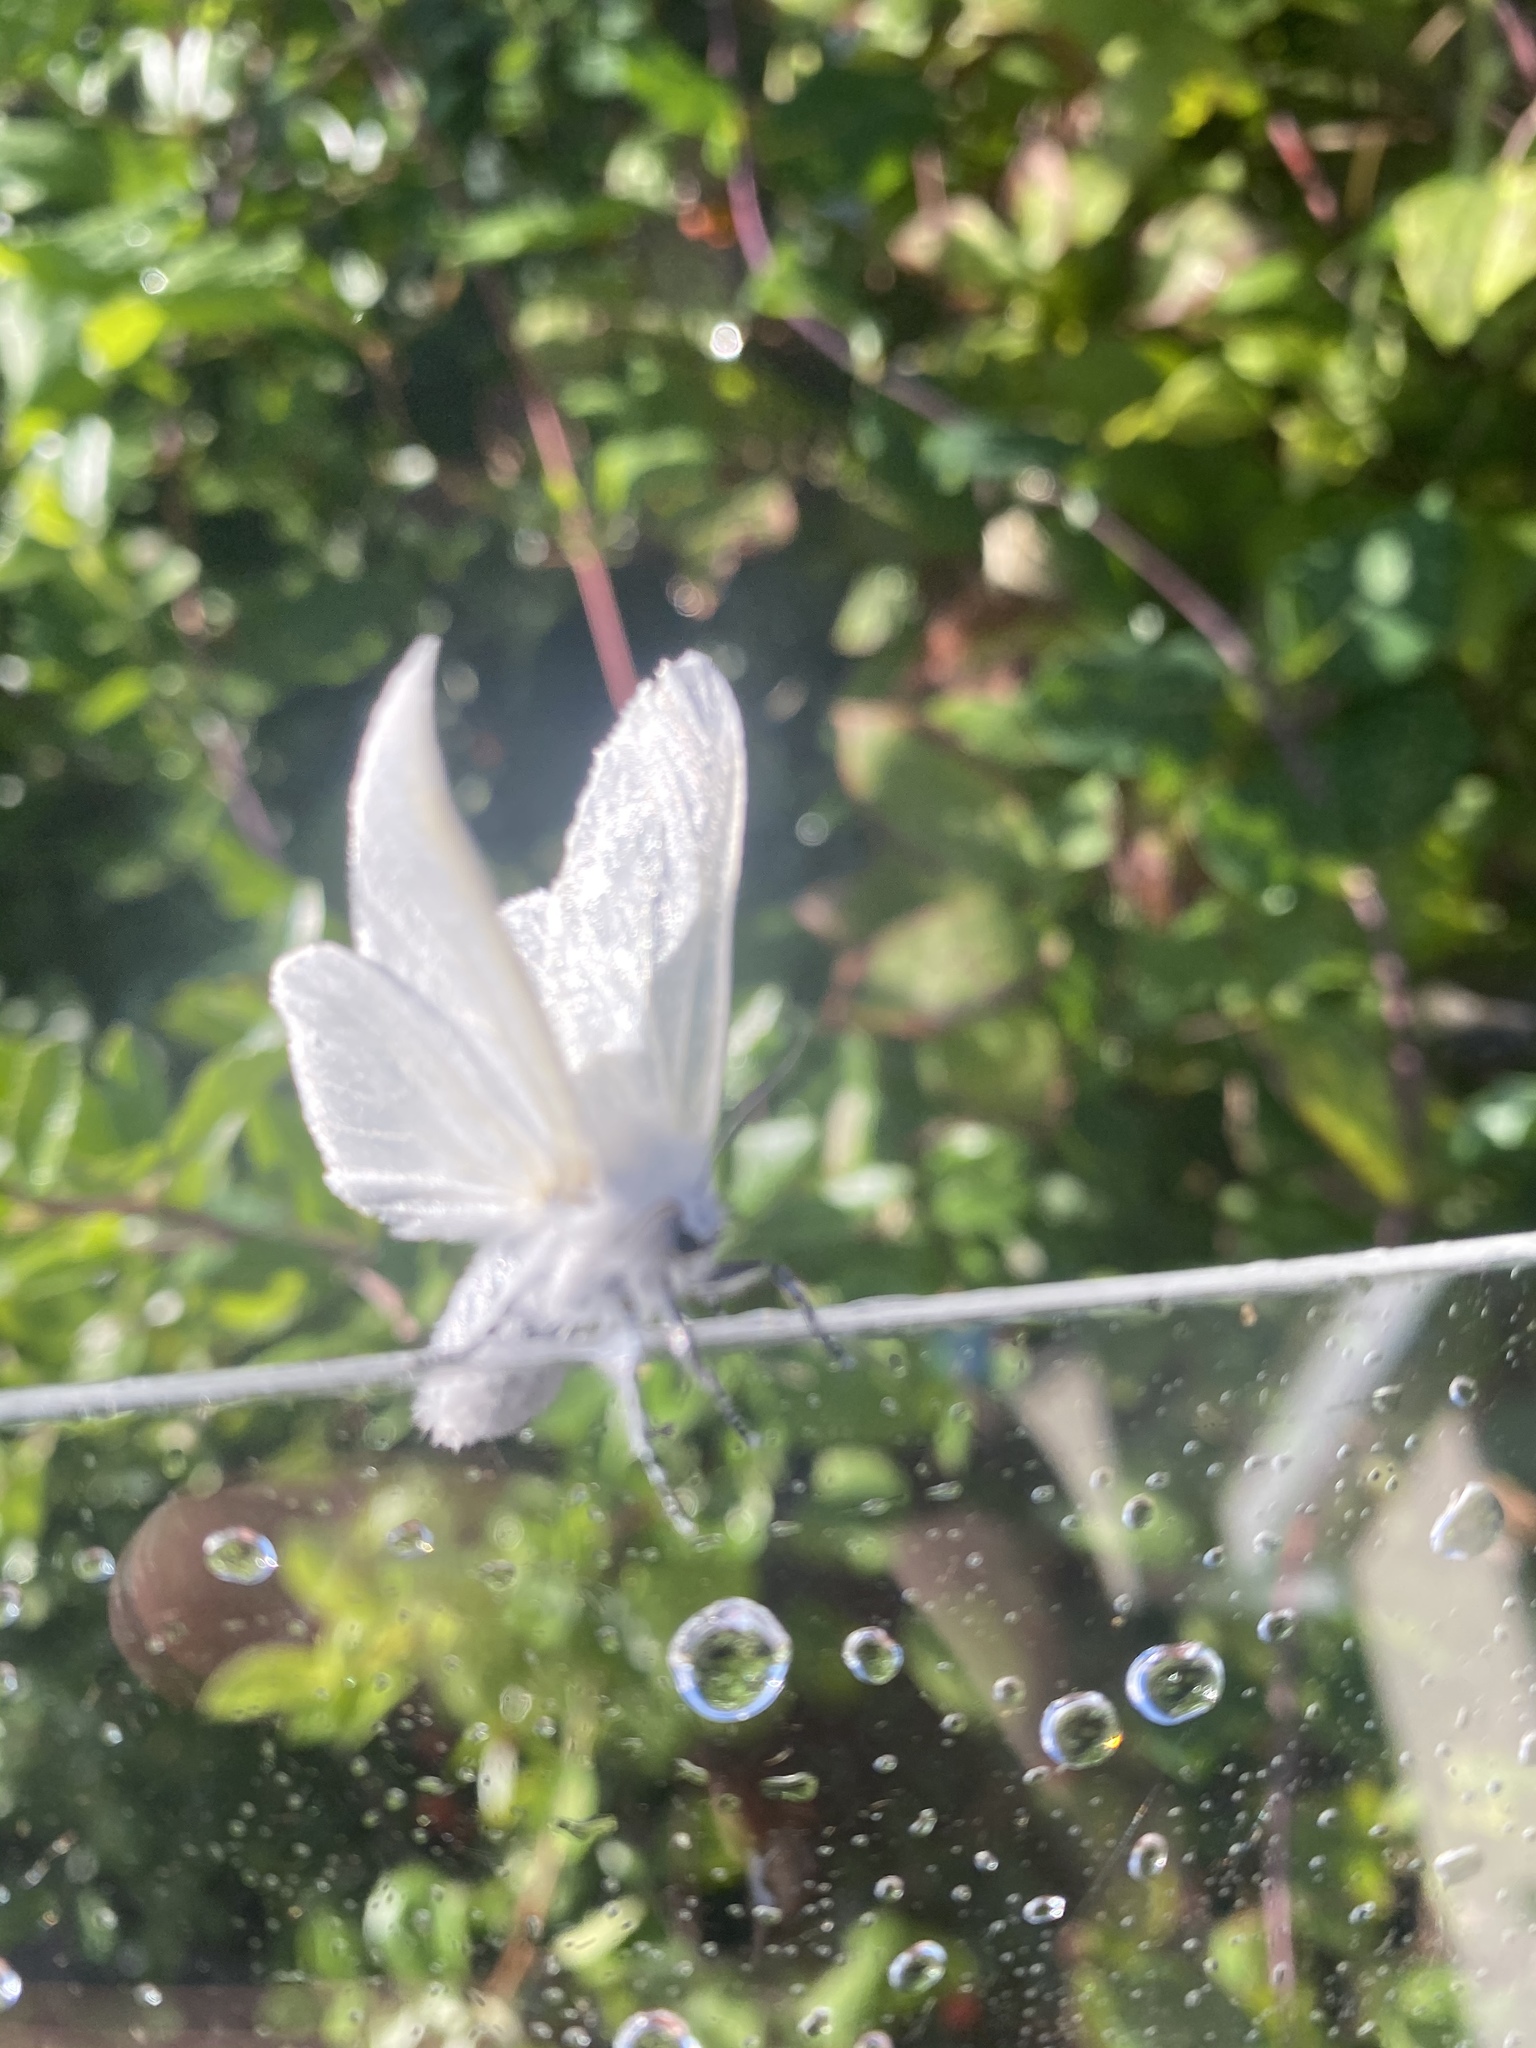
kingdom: Animalia
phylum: Arthropoda
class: Insecta
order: Lepidoptera
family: Erebidae
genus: Leucoma
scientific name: Leucoma salicis
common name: White satin moth
